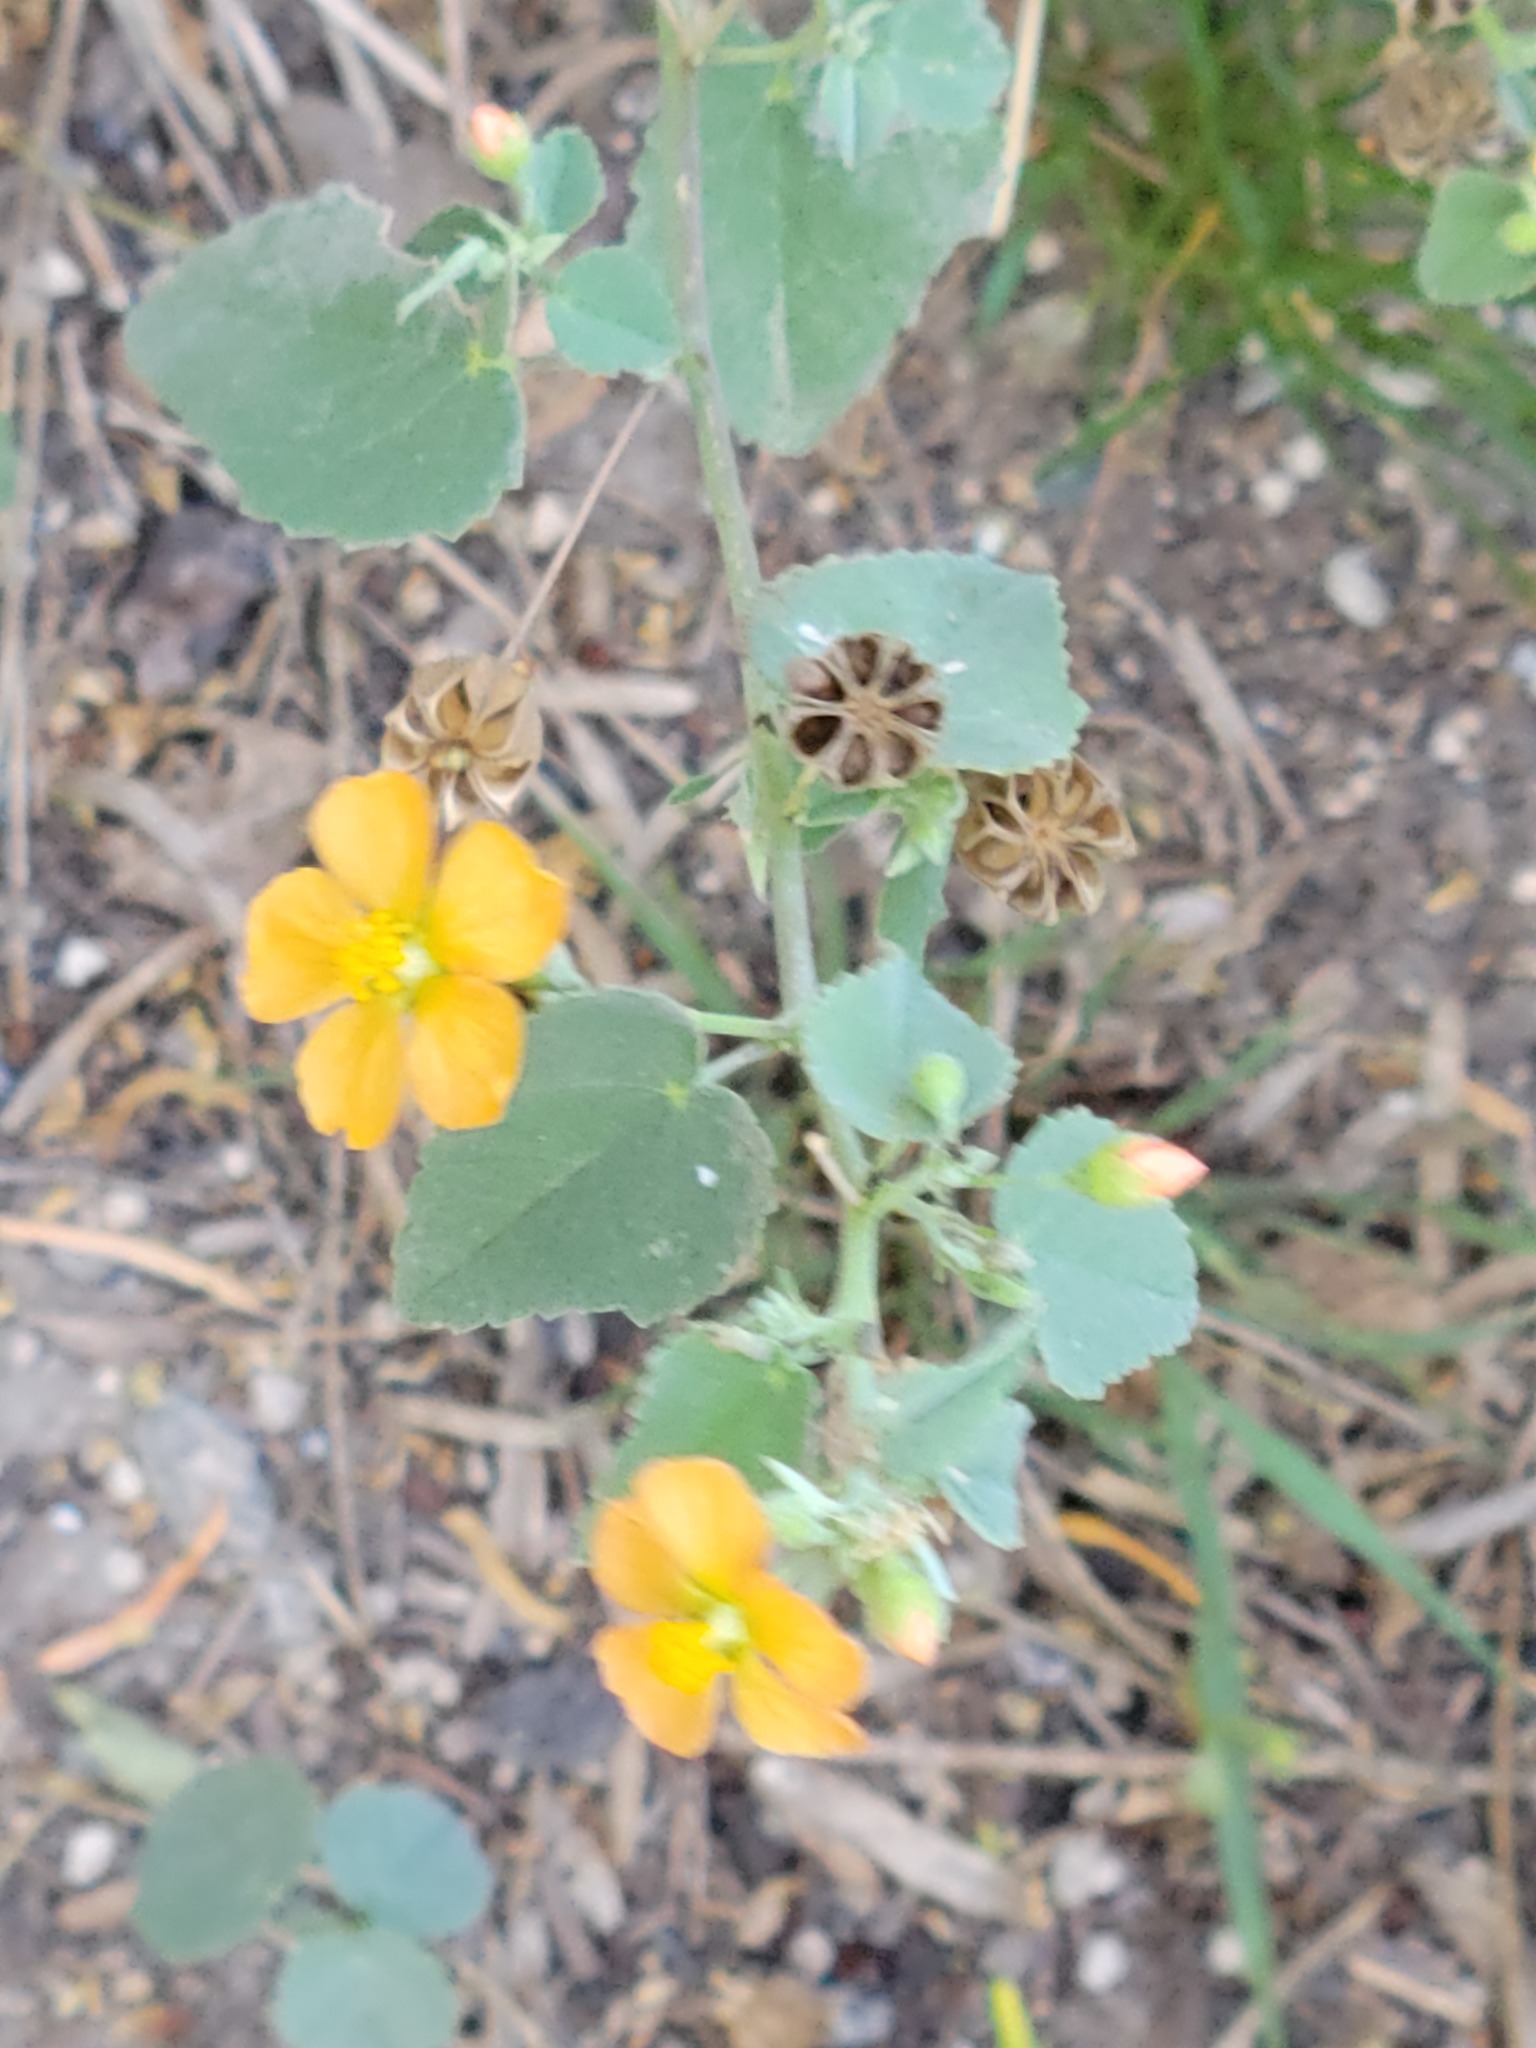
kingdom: Plantae
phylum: Tracheophyta
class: Magnoliopsida
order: Malvales
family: Malvaceae
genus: Abutilon
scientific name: Abutilon fruticosum
